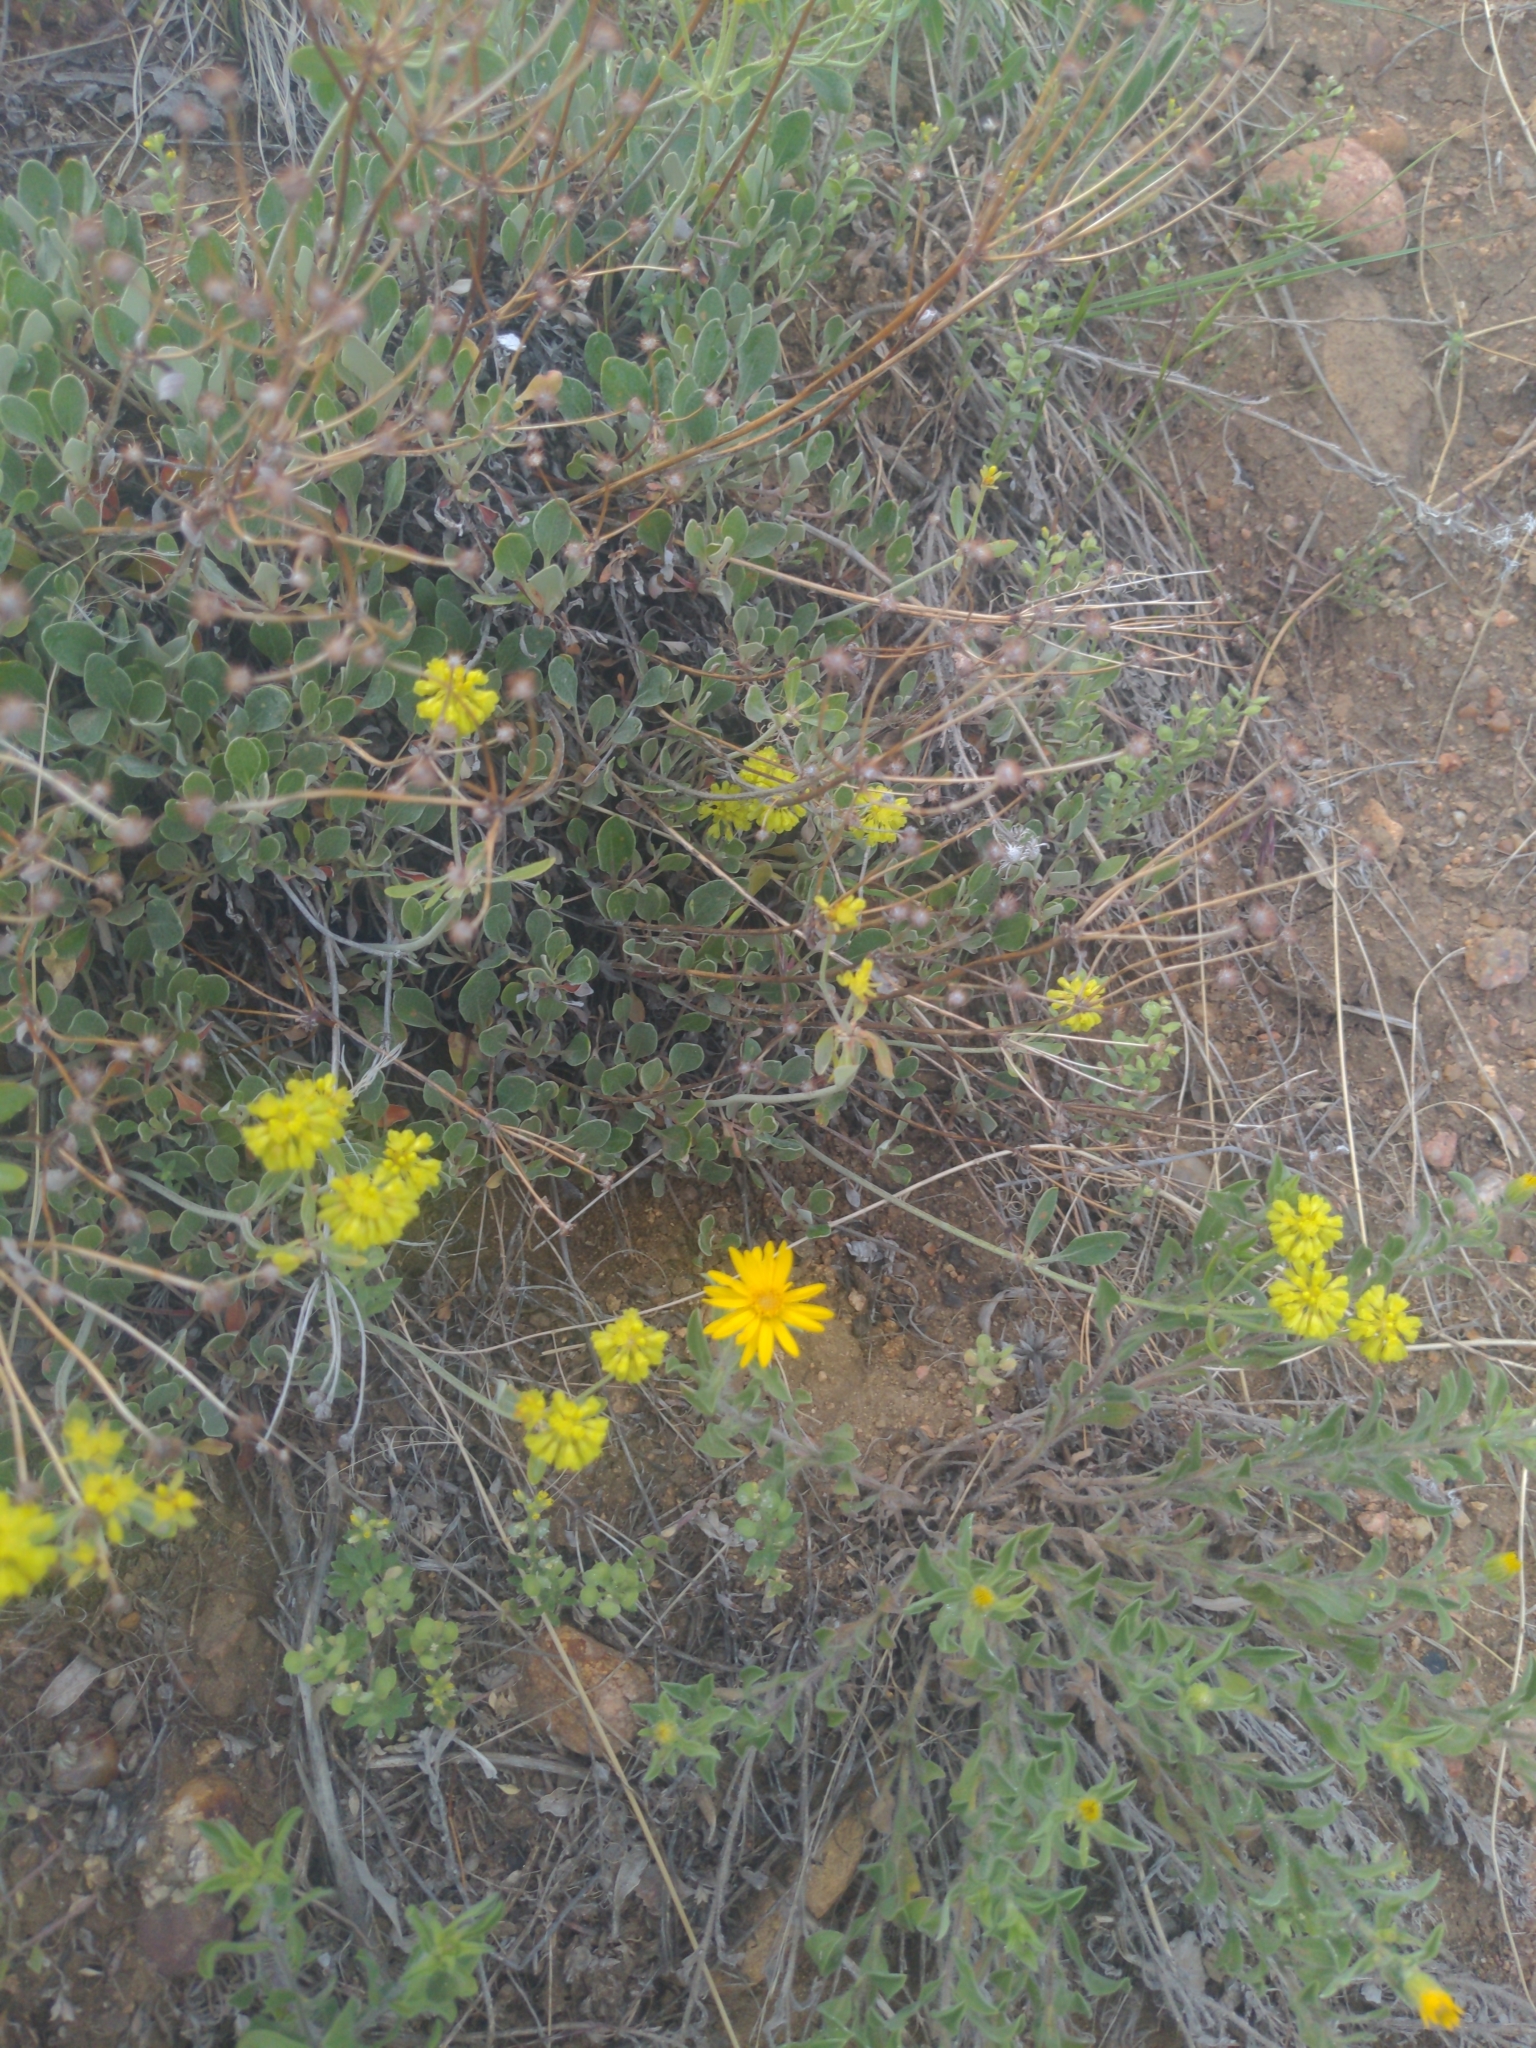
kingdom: Plantae
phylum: Tracheophyta
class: Magnoliopsida
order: Caryophyllales
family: Polygonaceae
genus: Eriogonum
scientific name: Eriogonum umbellatum
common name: Sulfur-buckwheat
